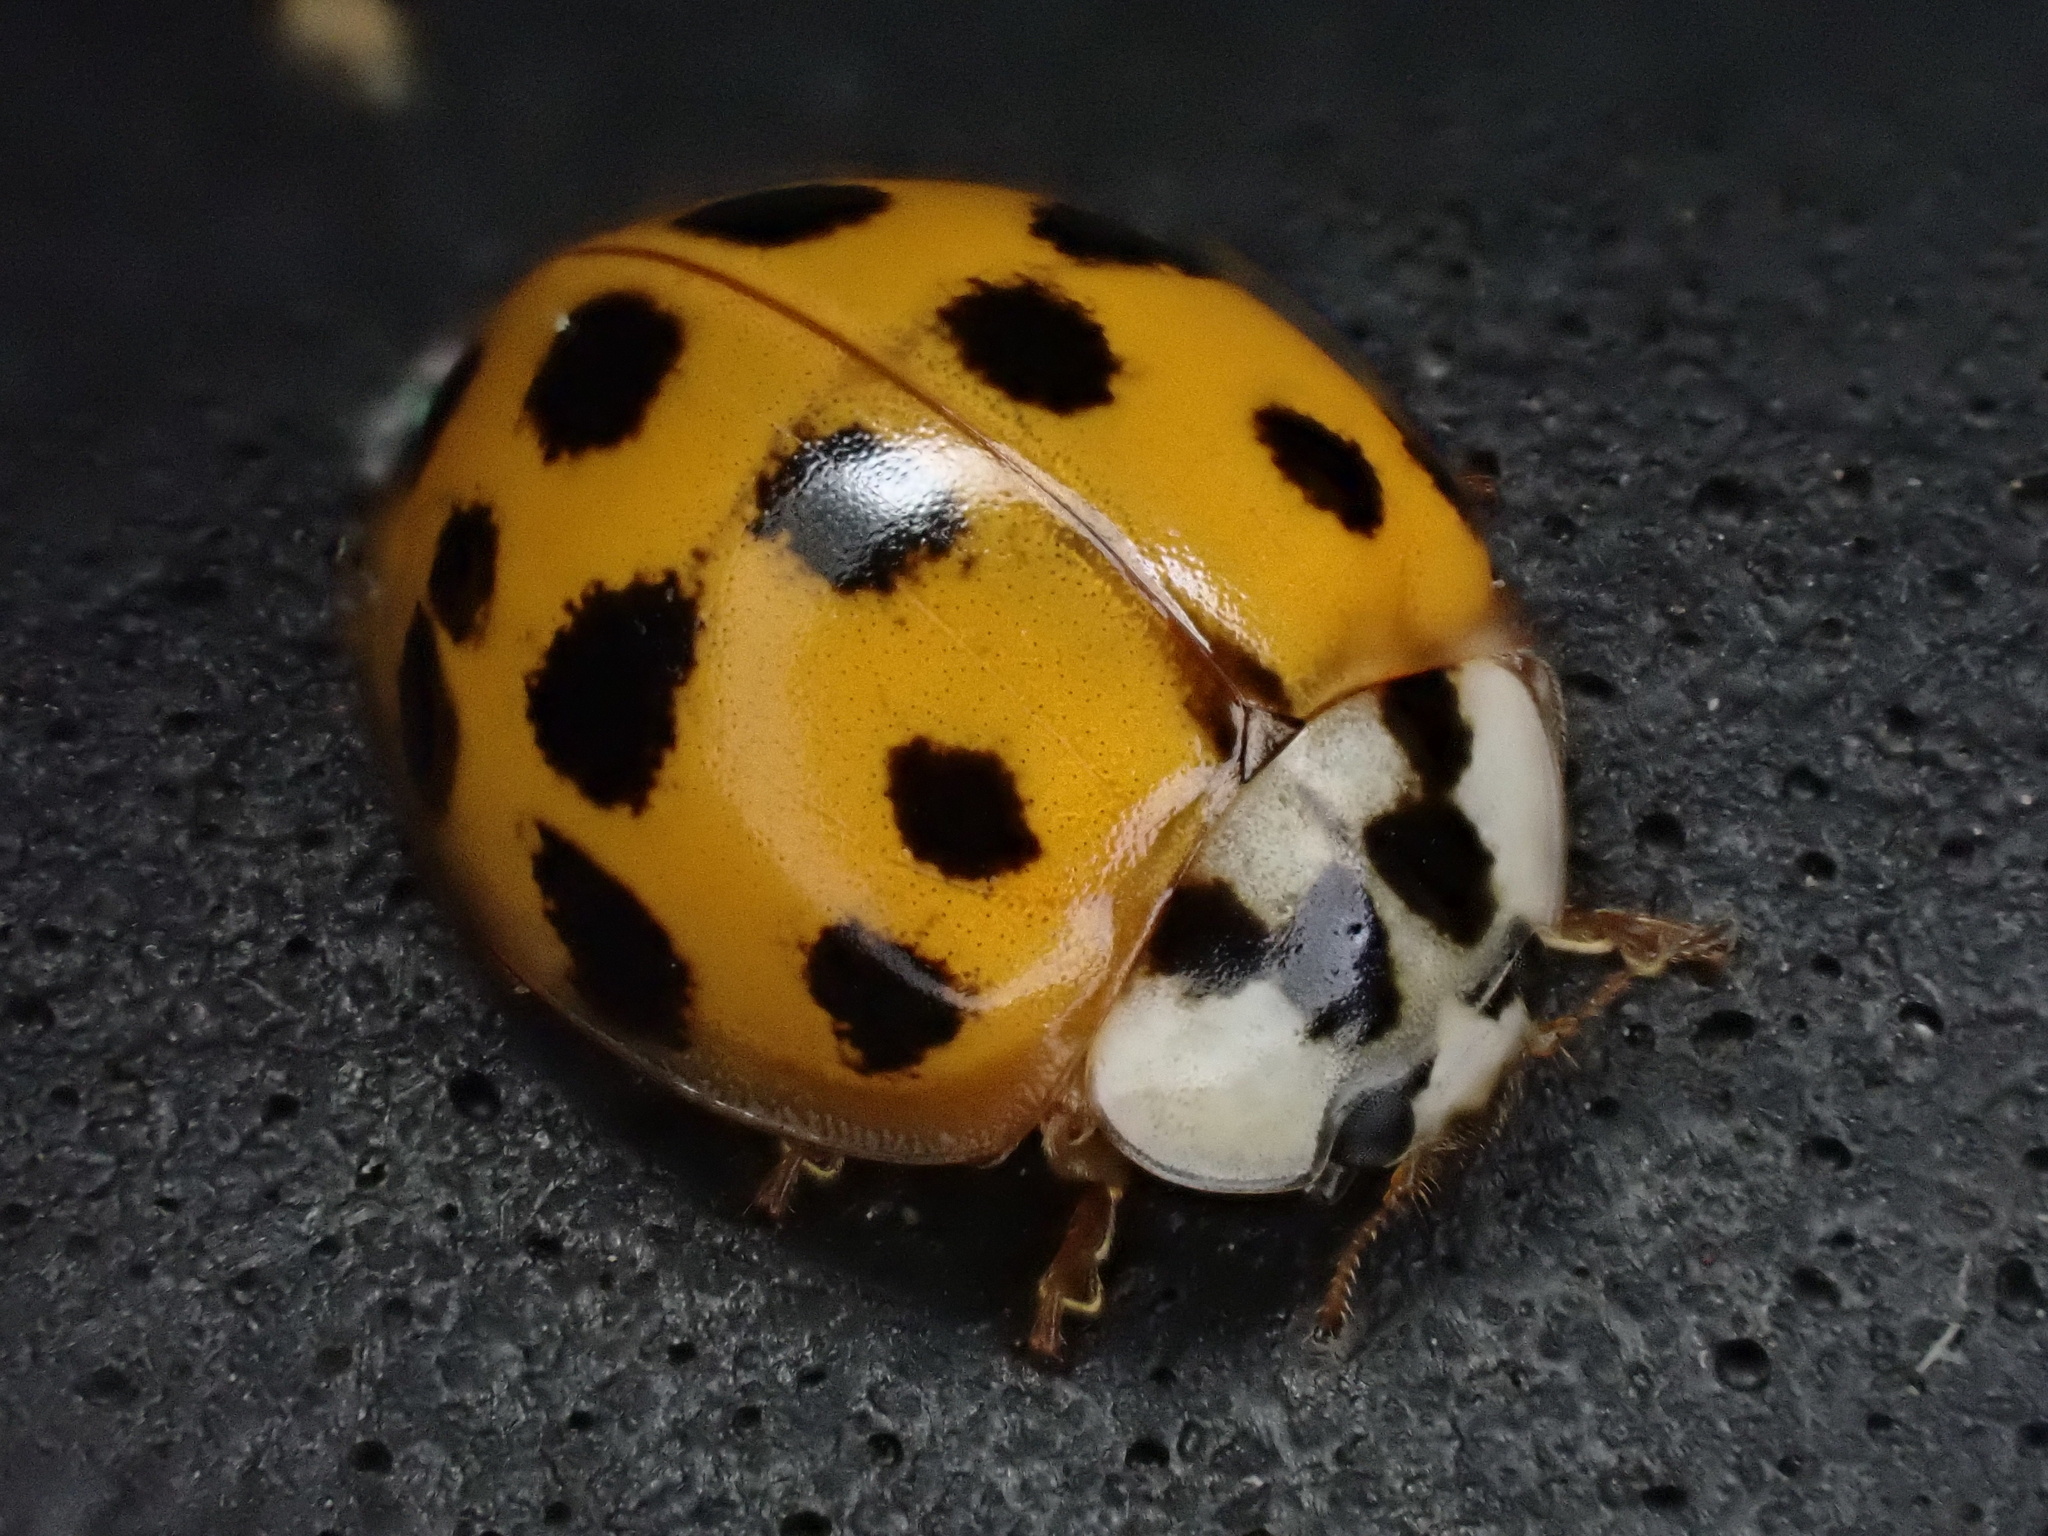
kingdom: Animalia
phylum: Arthropoda
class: Insecta
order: Coleoptera
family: Coccinellidae
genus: Harmonia
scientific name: Harmonia axyridis
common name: Harlequin ladybird
